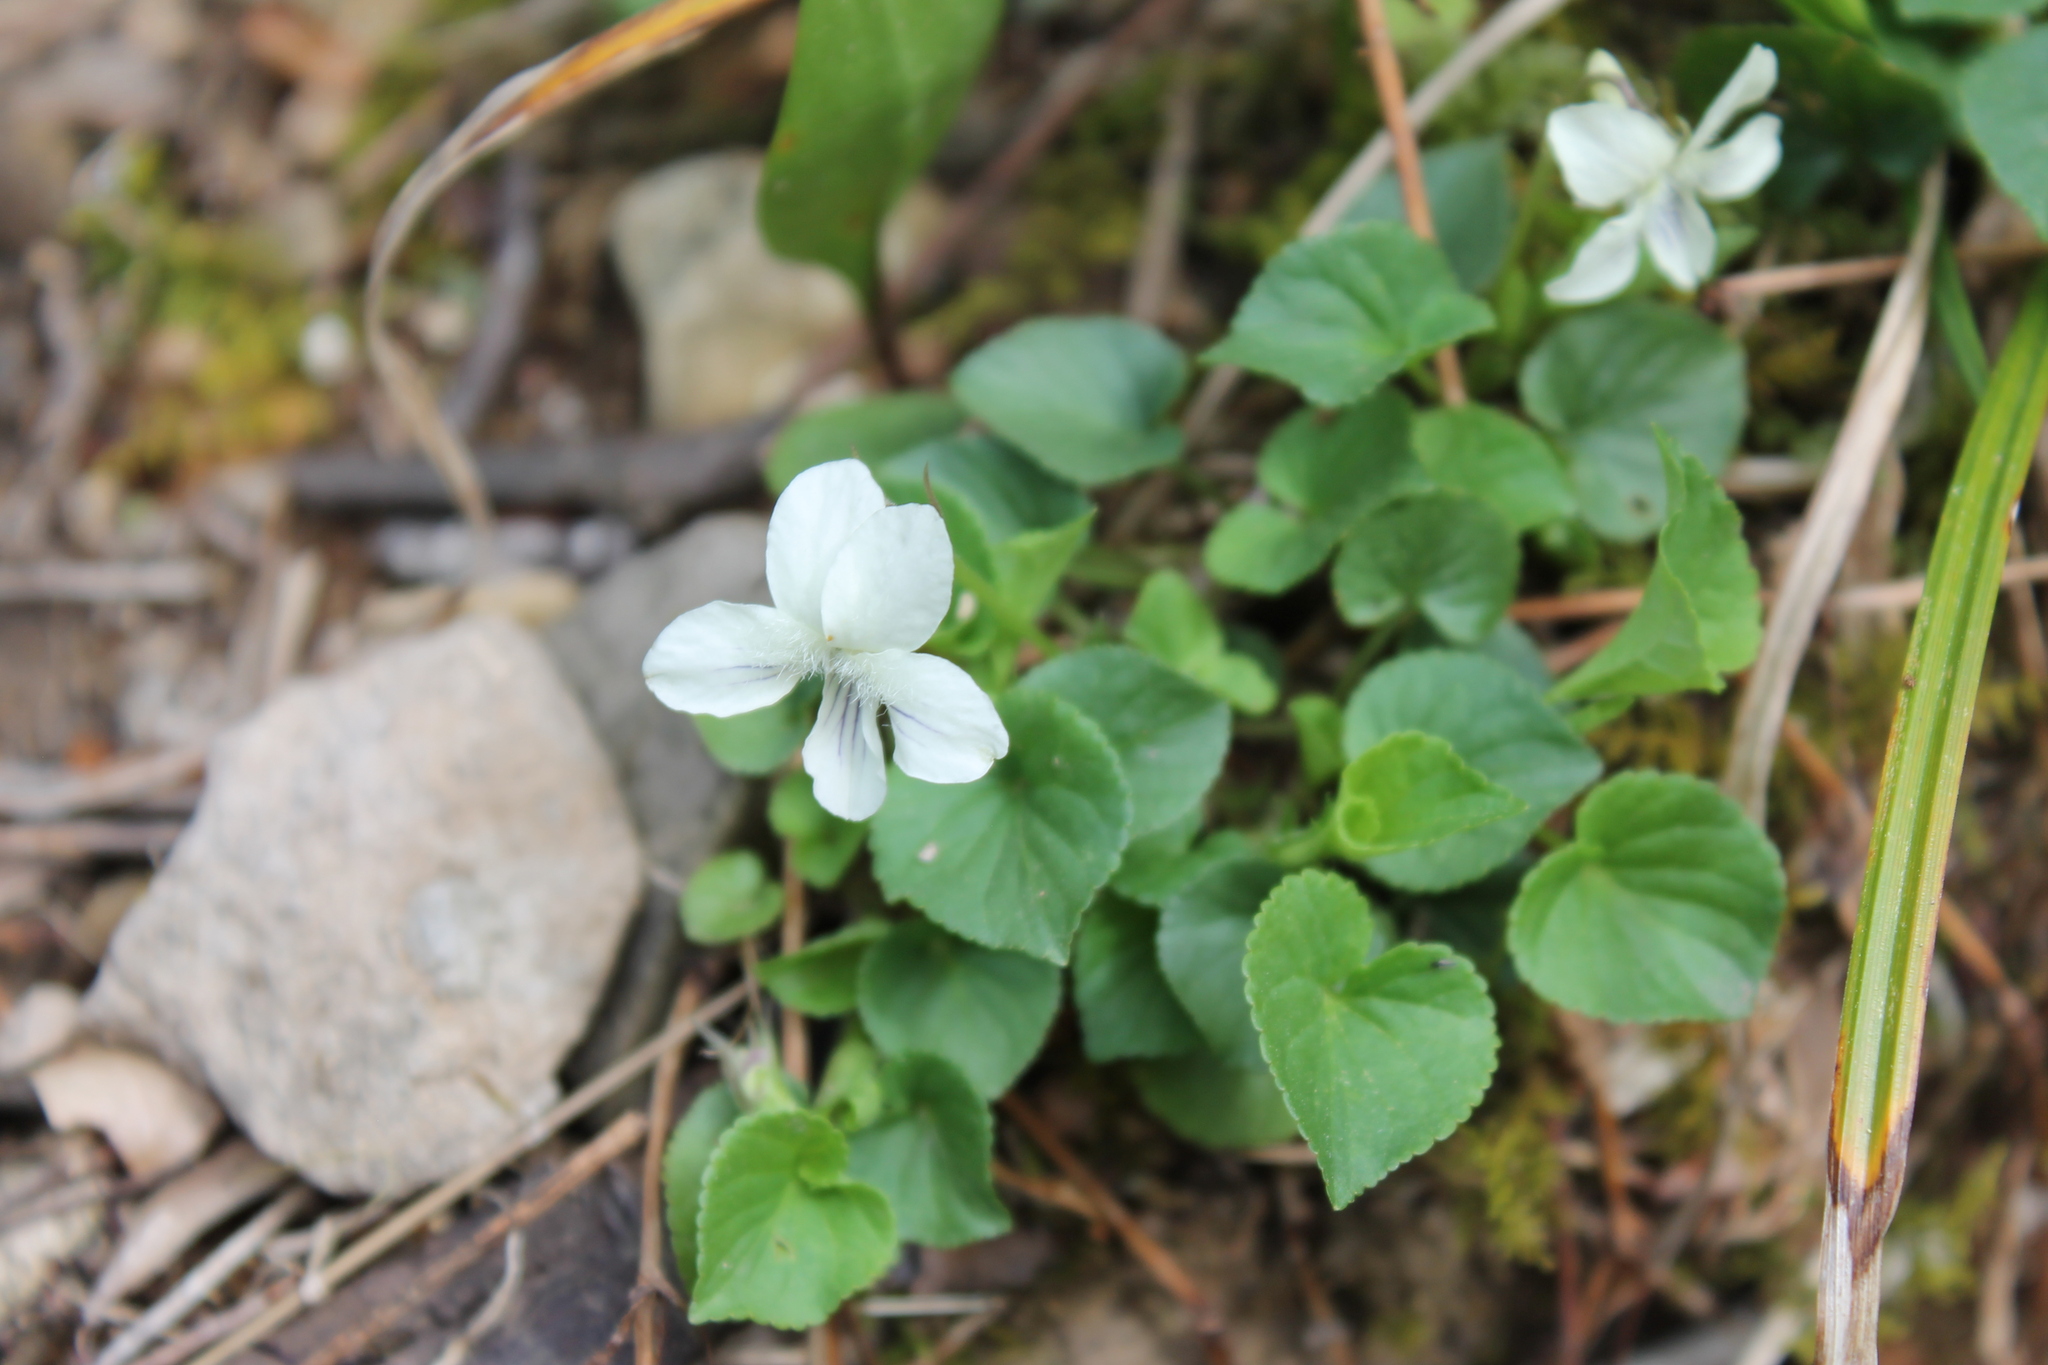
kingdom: Plantae
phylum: Tracheophyta
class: Magnoliopsida
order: Malpighiales
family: Violaceae
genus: Viola
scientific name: Viola striata
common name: Cream violet
